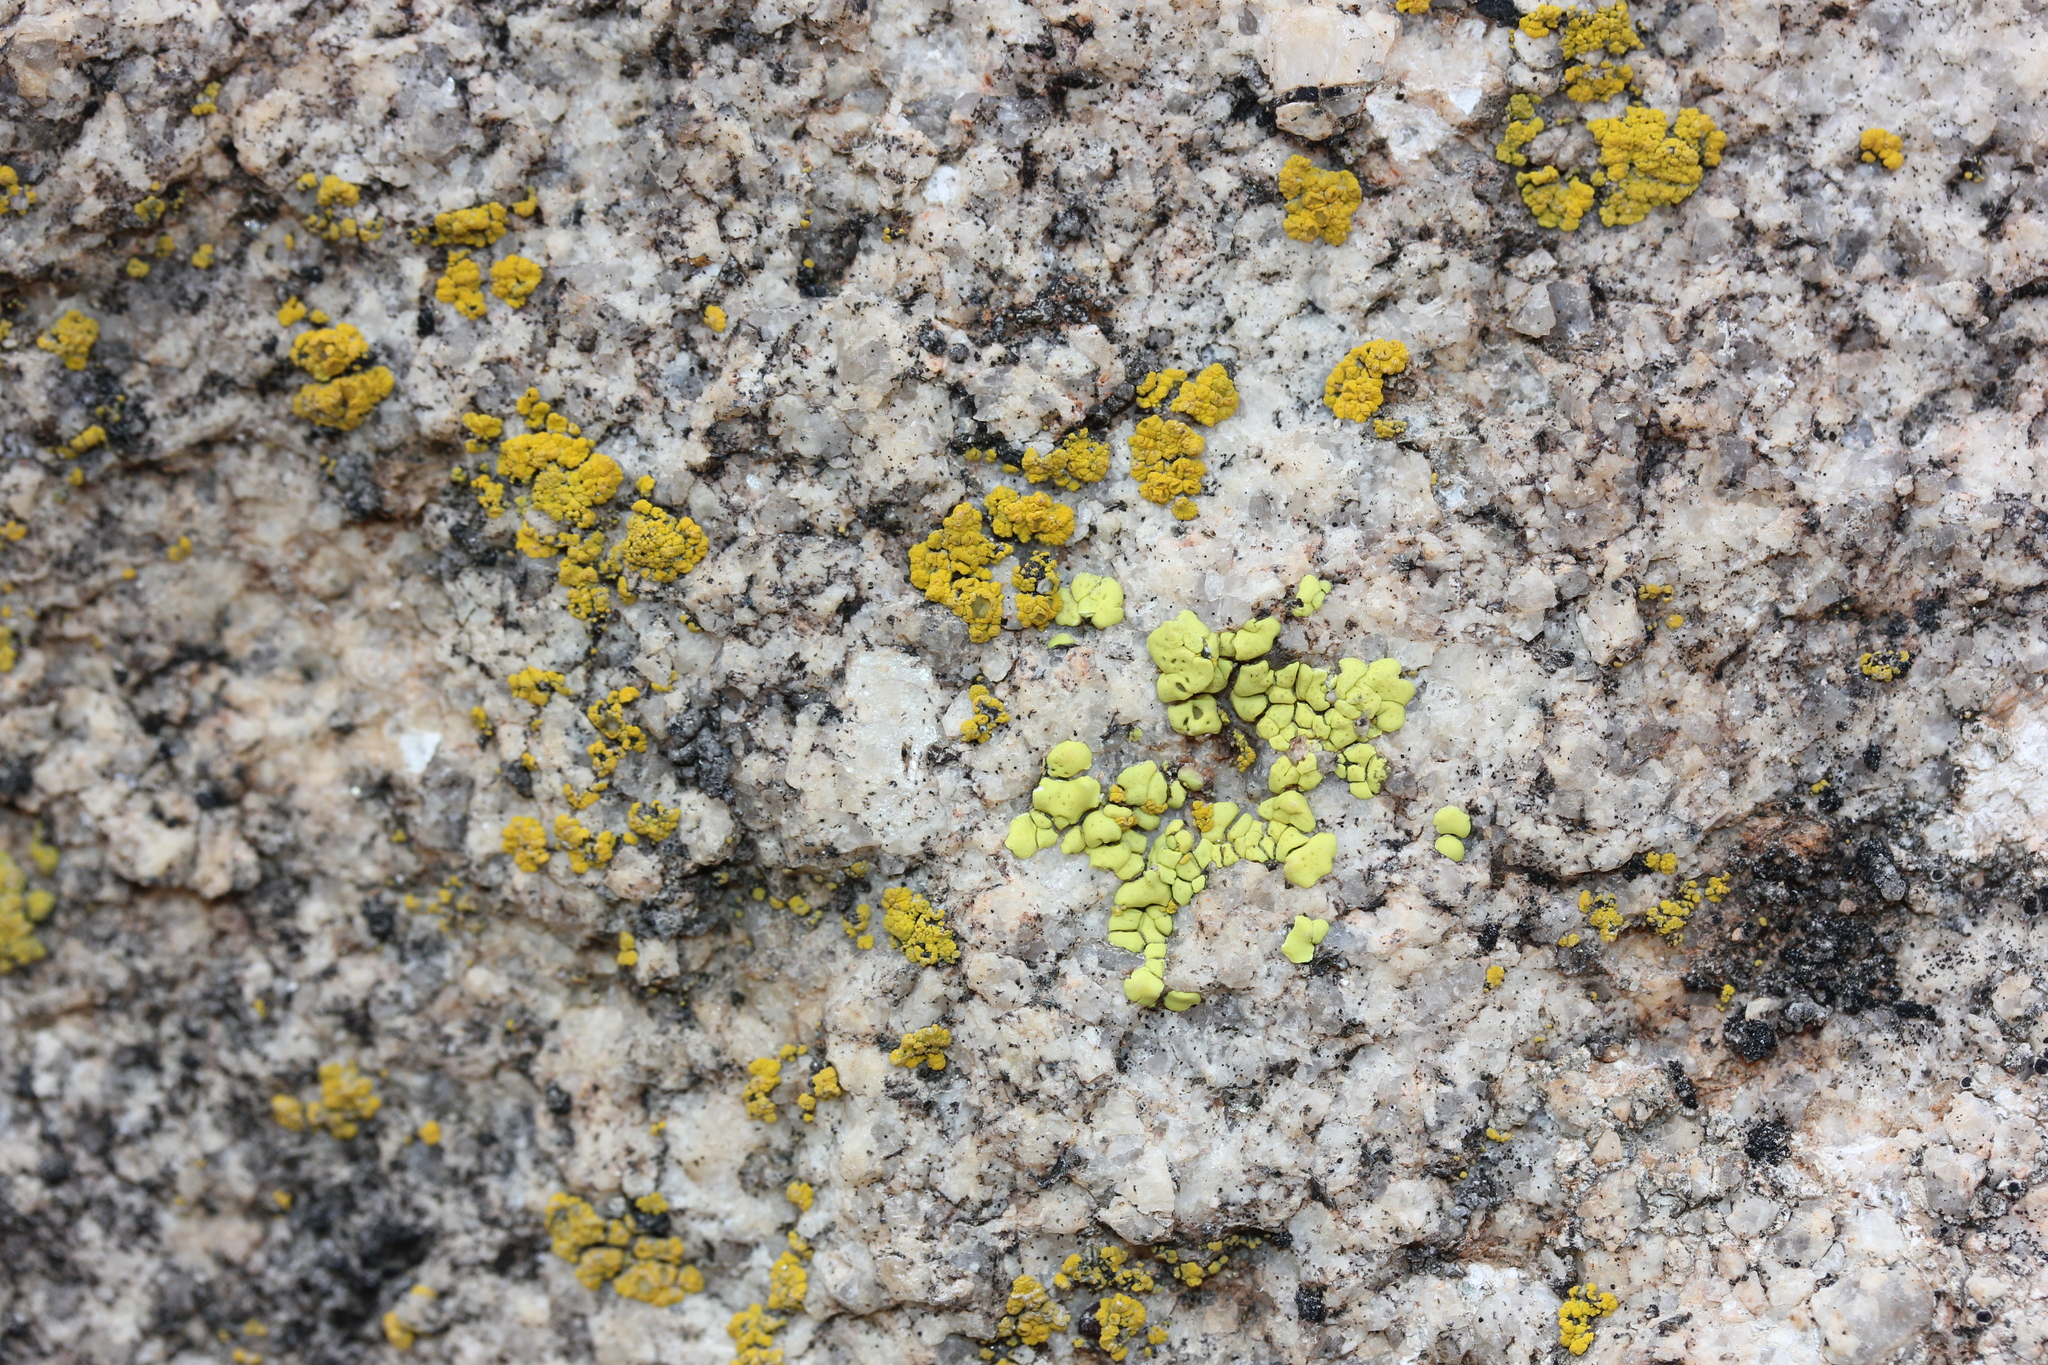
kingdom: Fungi
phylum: Ascomycota
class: Candelariomycetes
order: Candelariales
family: Candelariaceae
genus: Candelariella
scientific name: Candelariella rosulans
